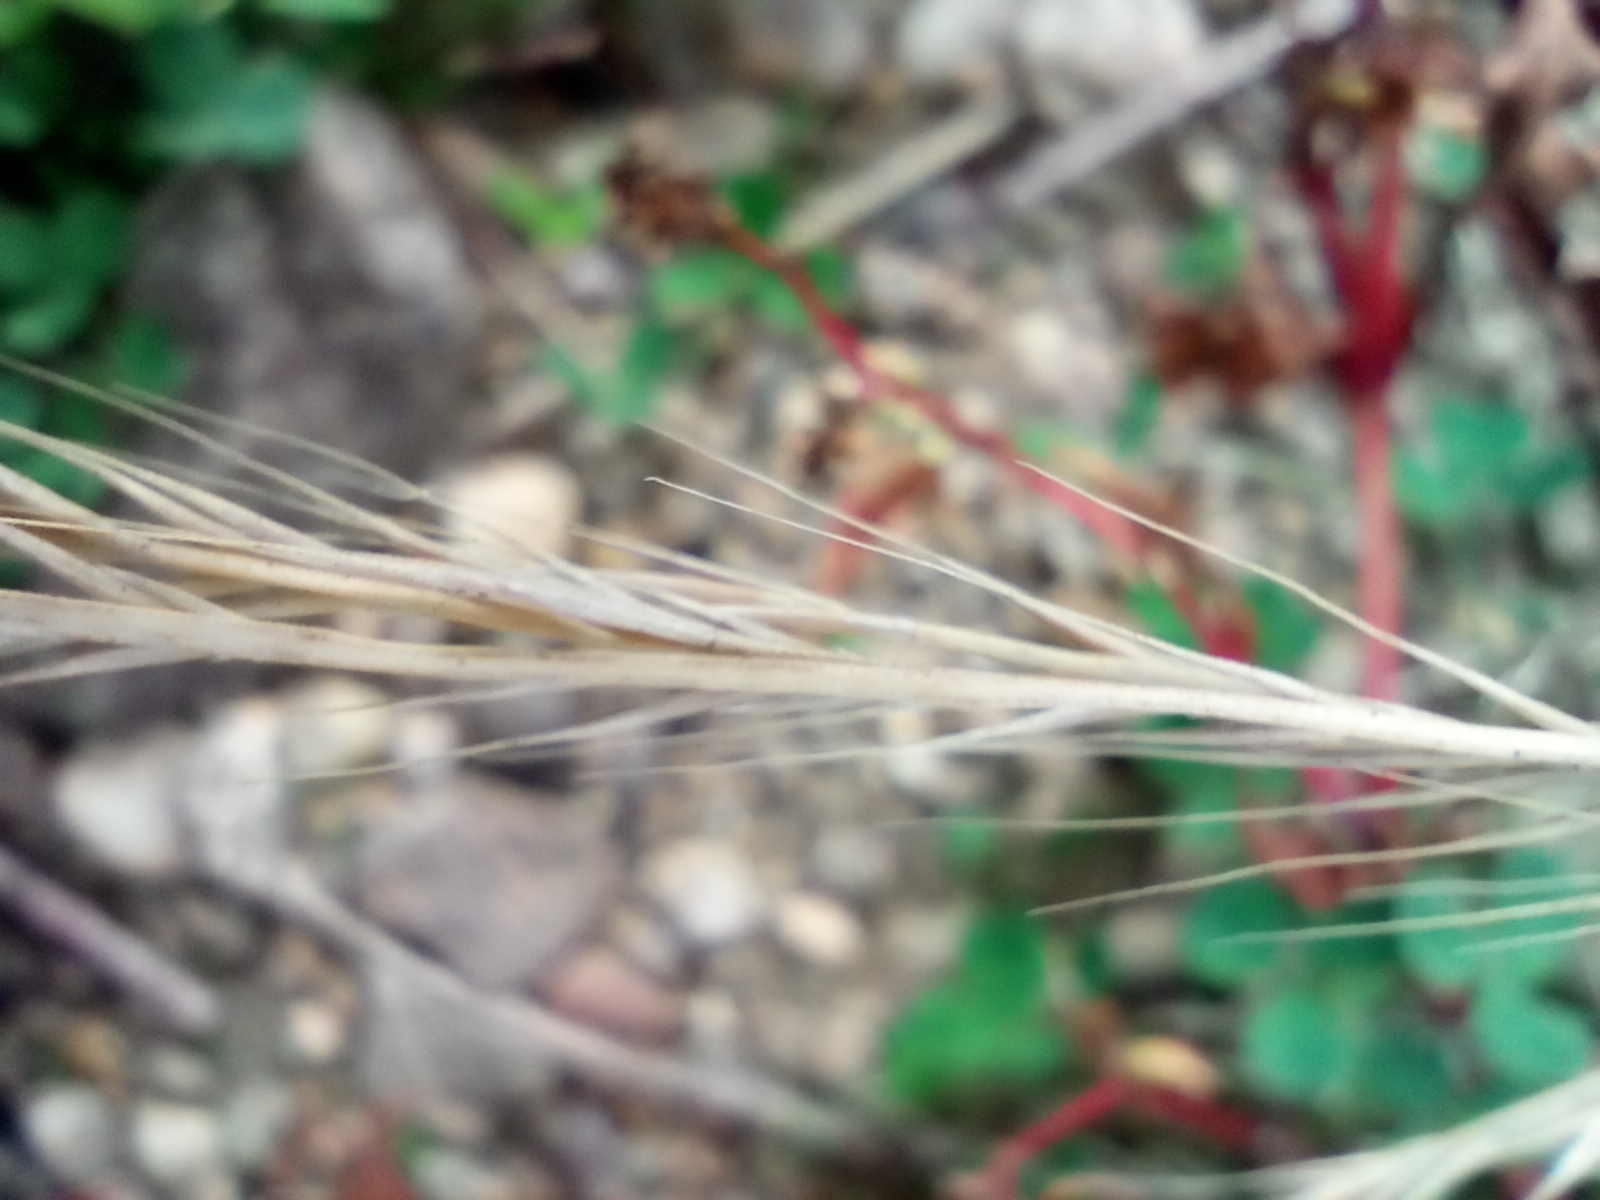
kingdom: Plantae
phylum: Tracheophyta
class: Liliopsida
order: Poales
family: Poaceae
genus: Festuca
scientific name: Festuca myuros
